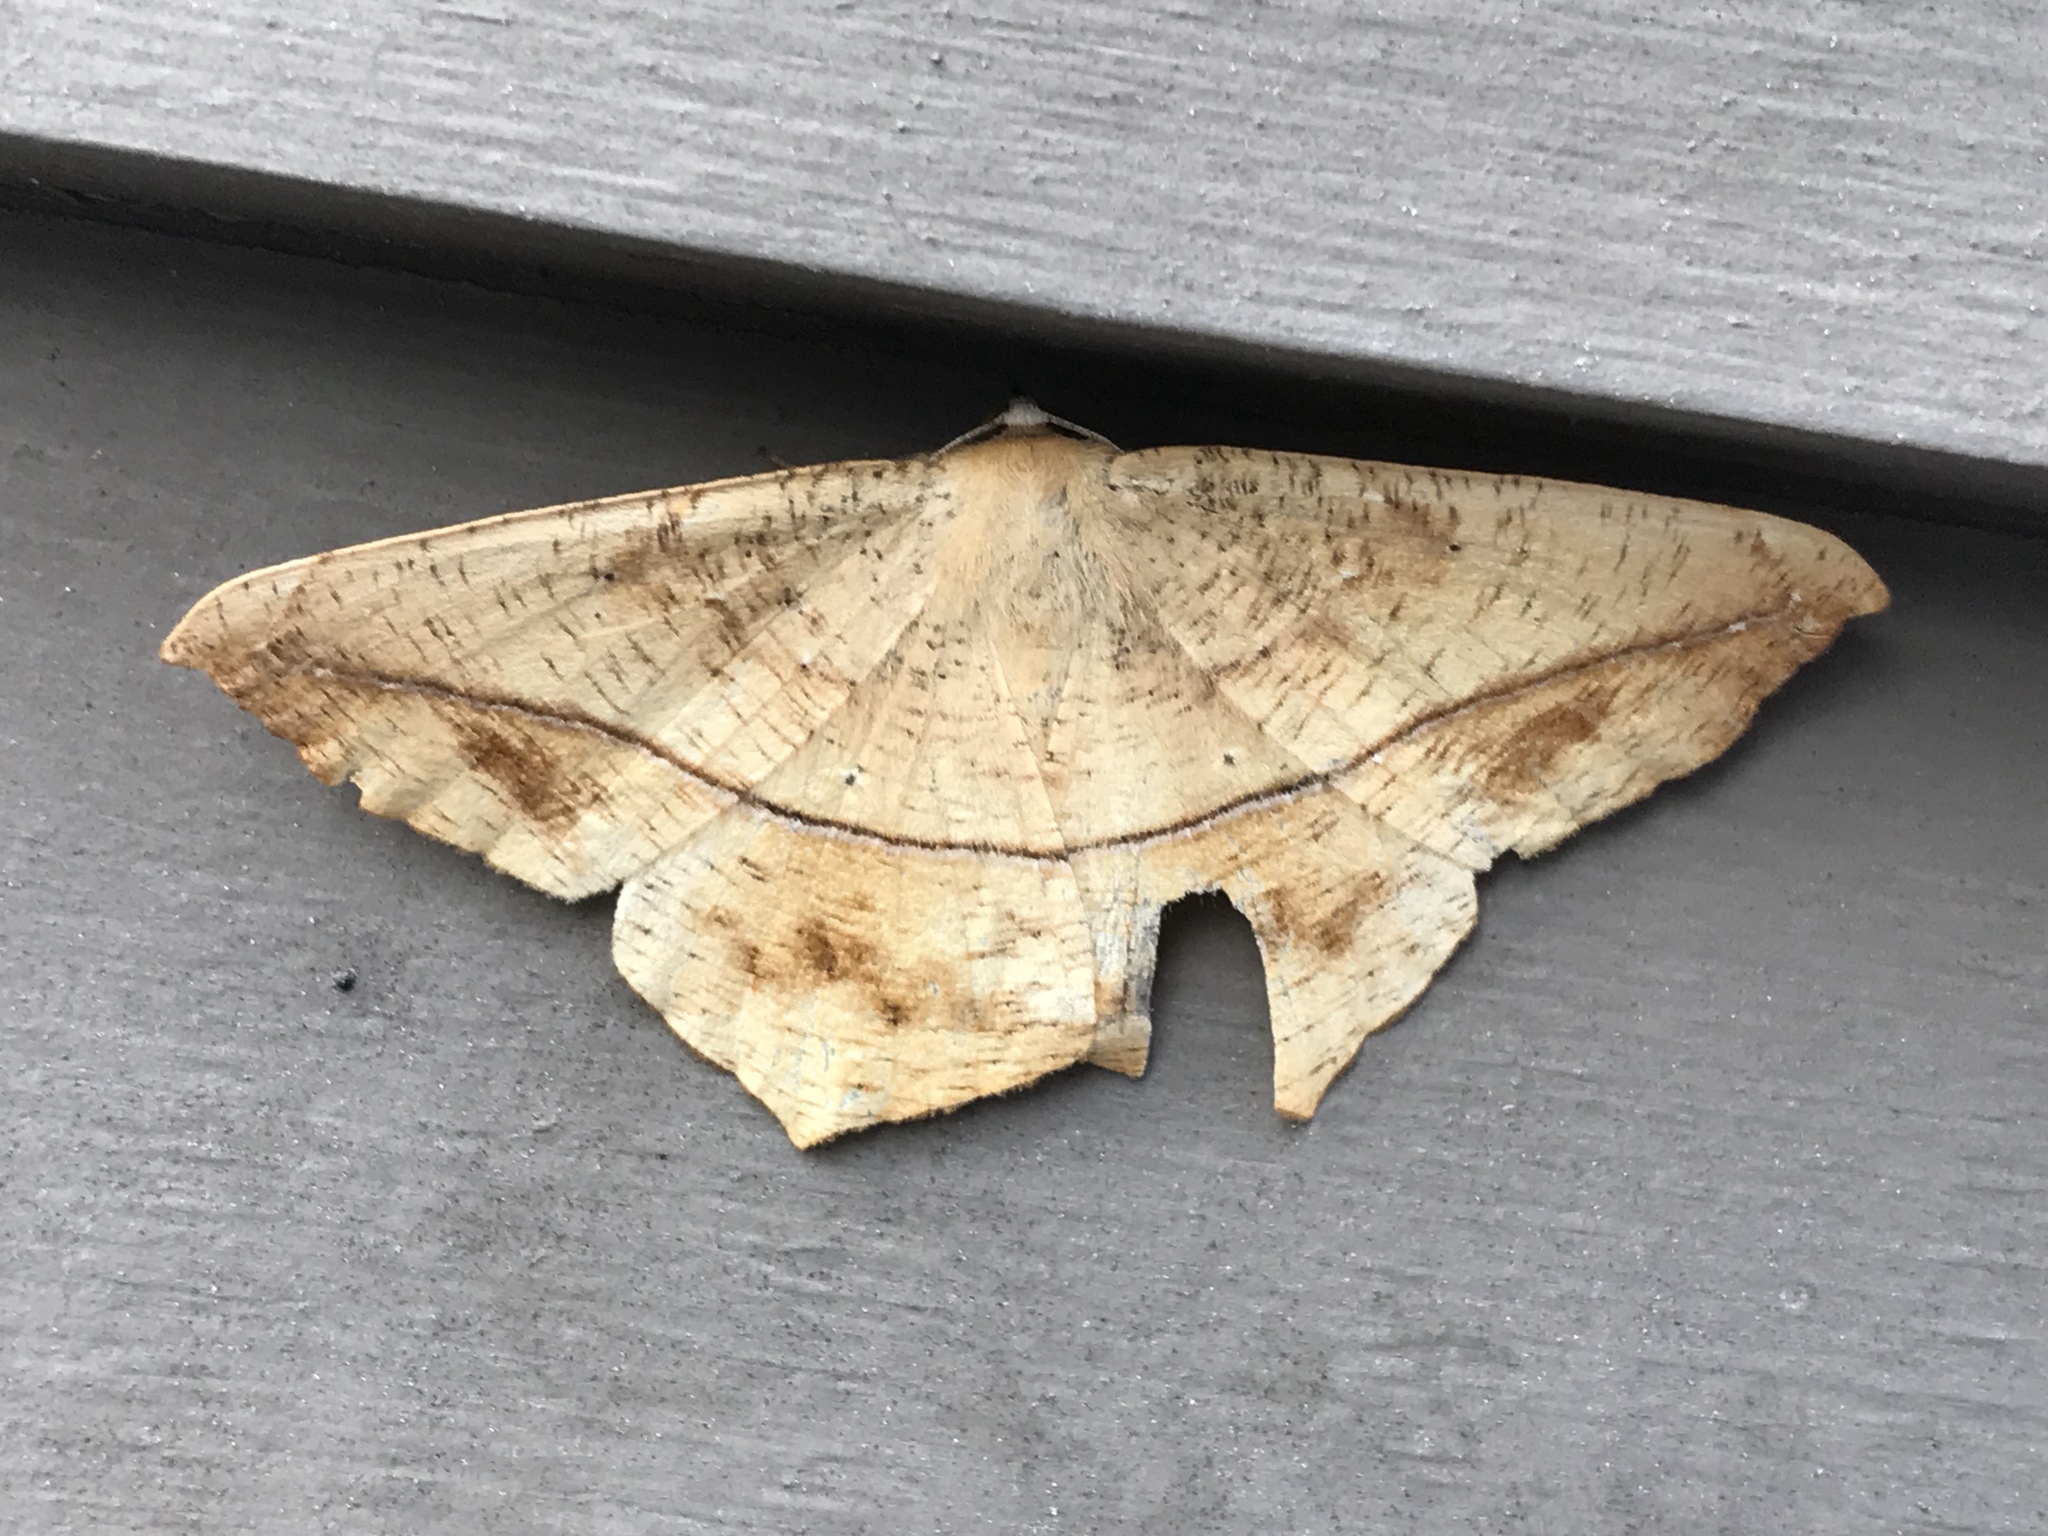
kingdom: Animalia
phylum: Arthropoda
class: Insecta
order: Lepidoptera
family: Geometridae
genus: Prochoerodes
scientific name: Prochoerodes lineola
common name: Large maple spanworm
